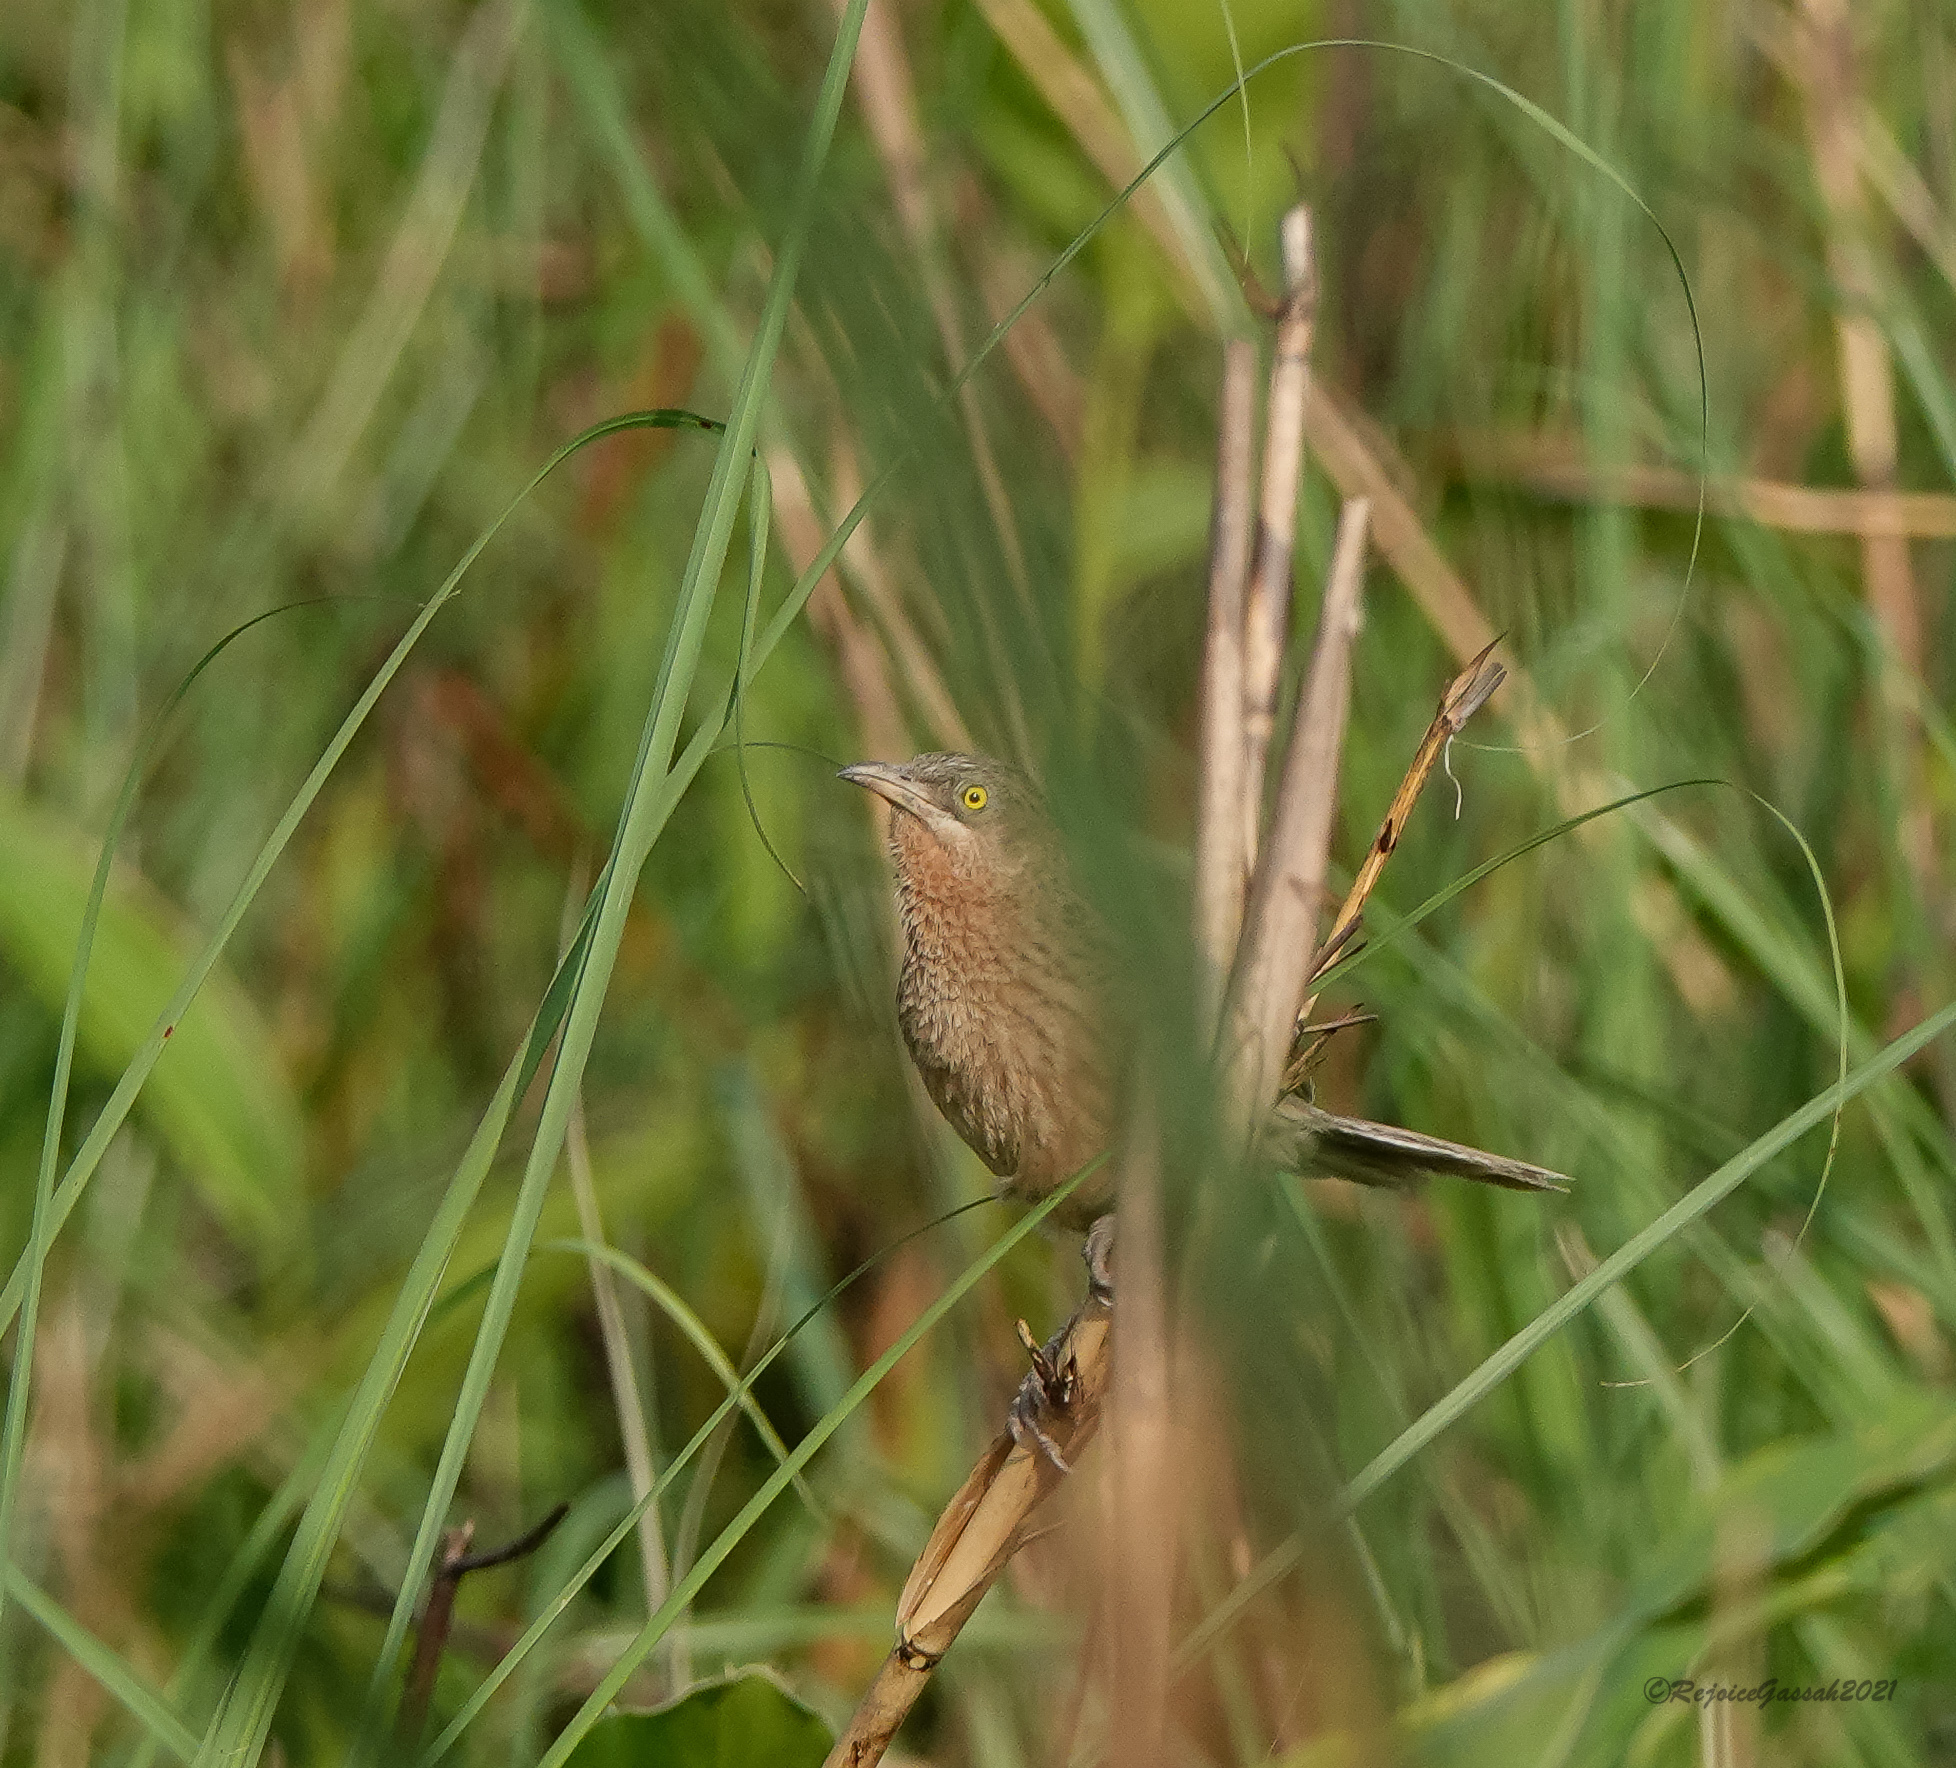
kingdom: Animalia
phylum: Chordata
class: Aves
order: Passeriformes
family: Leiothrichidae
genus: Turdoides
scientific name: Turdoides earlei
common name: Striated babbler
